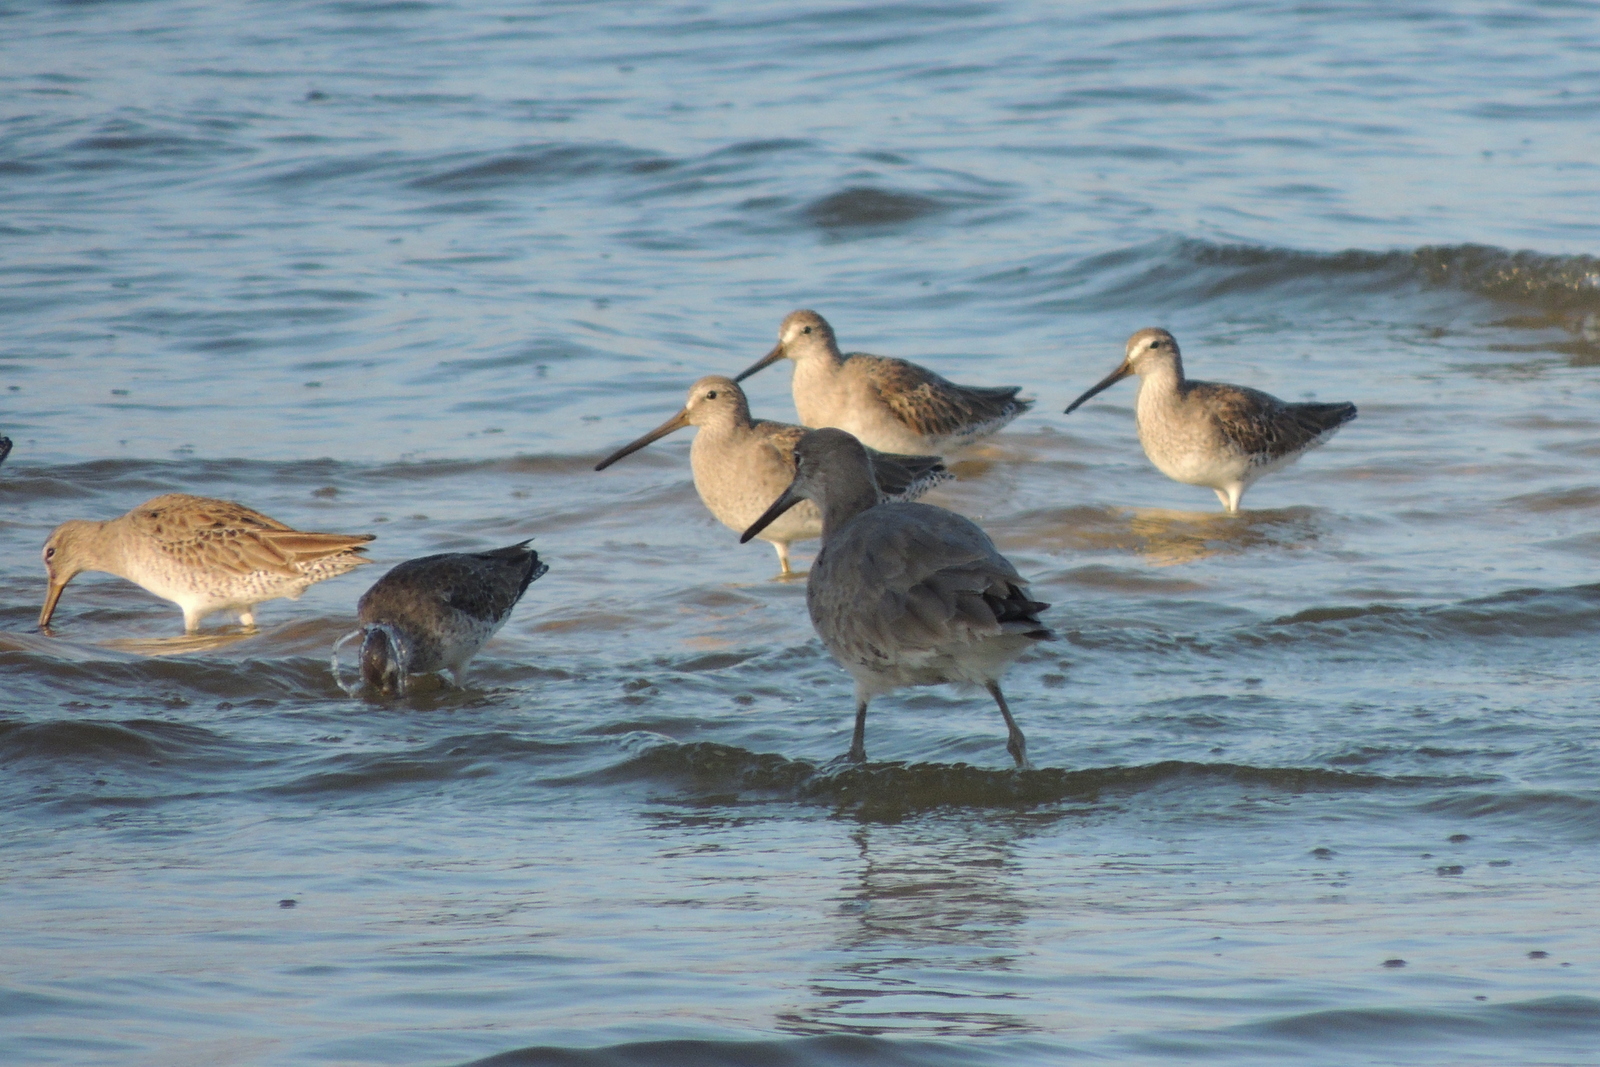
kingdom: Animalia
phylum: Chordata
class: Aves
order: Charadriiformes
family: Scolopacidae
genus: Tringa
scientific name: Tringa semipalmata
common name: Willet
